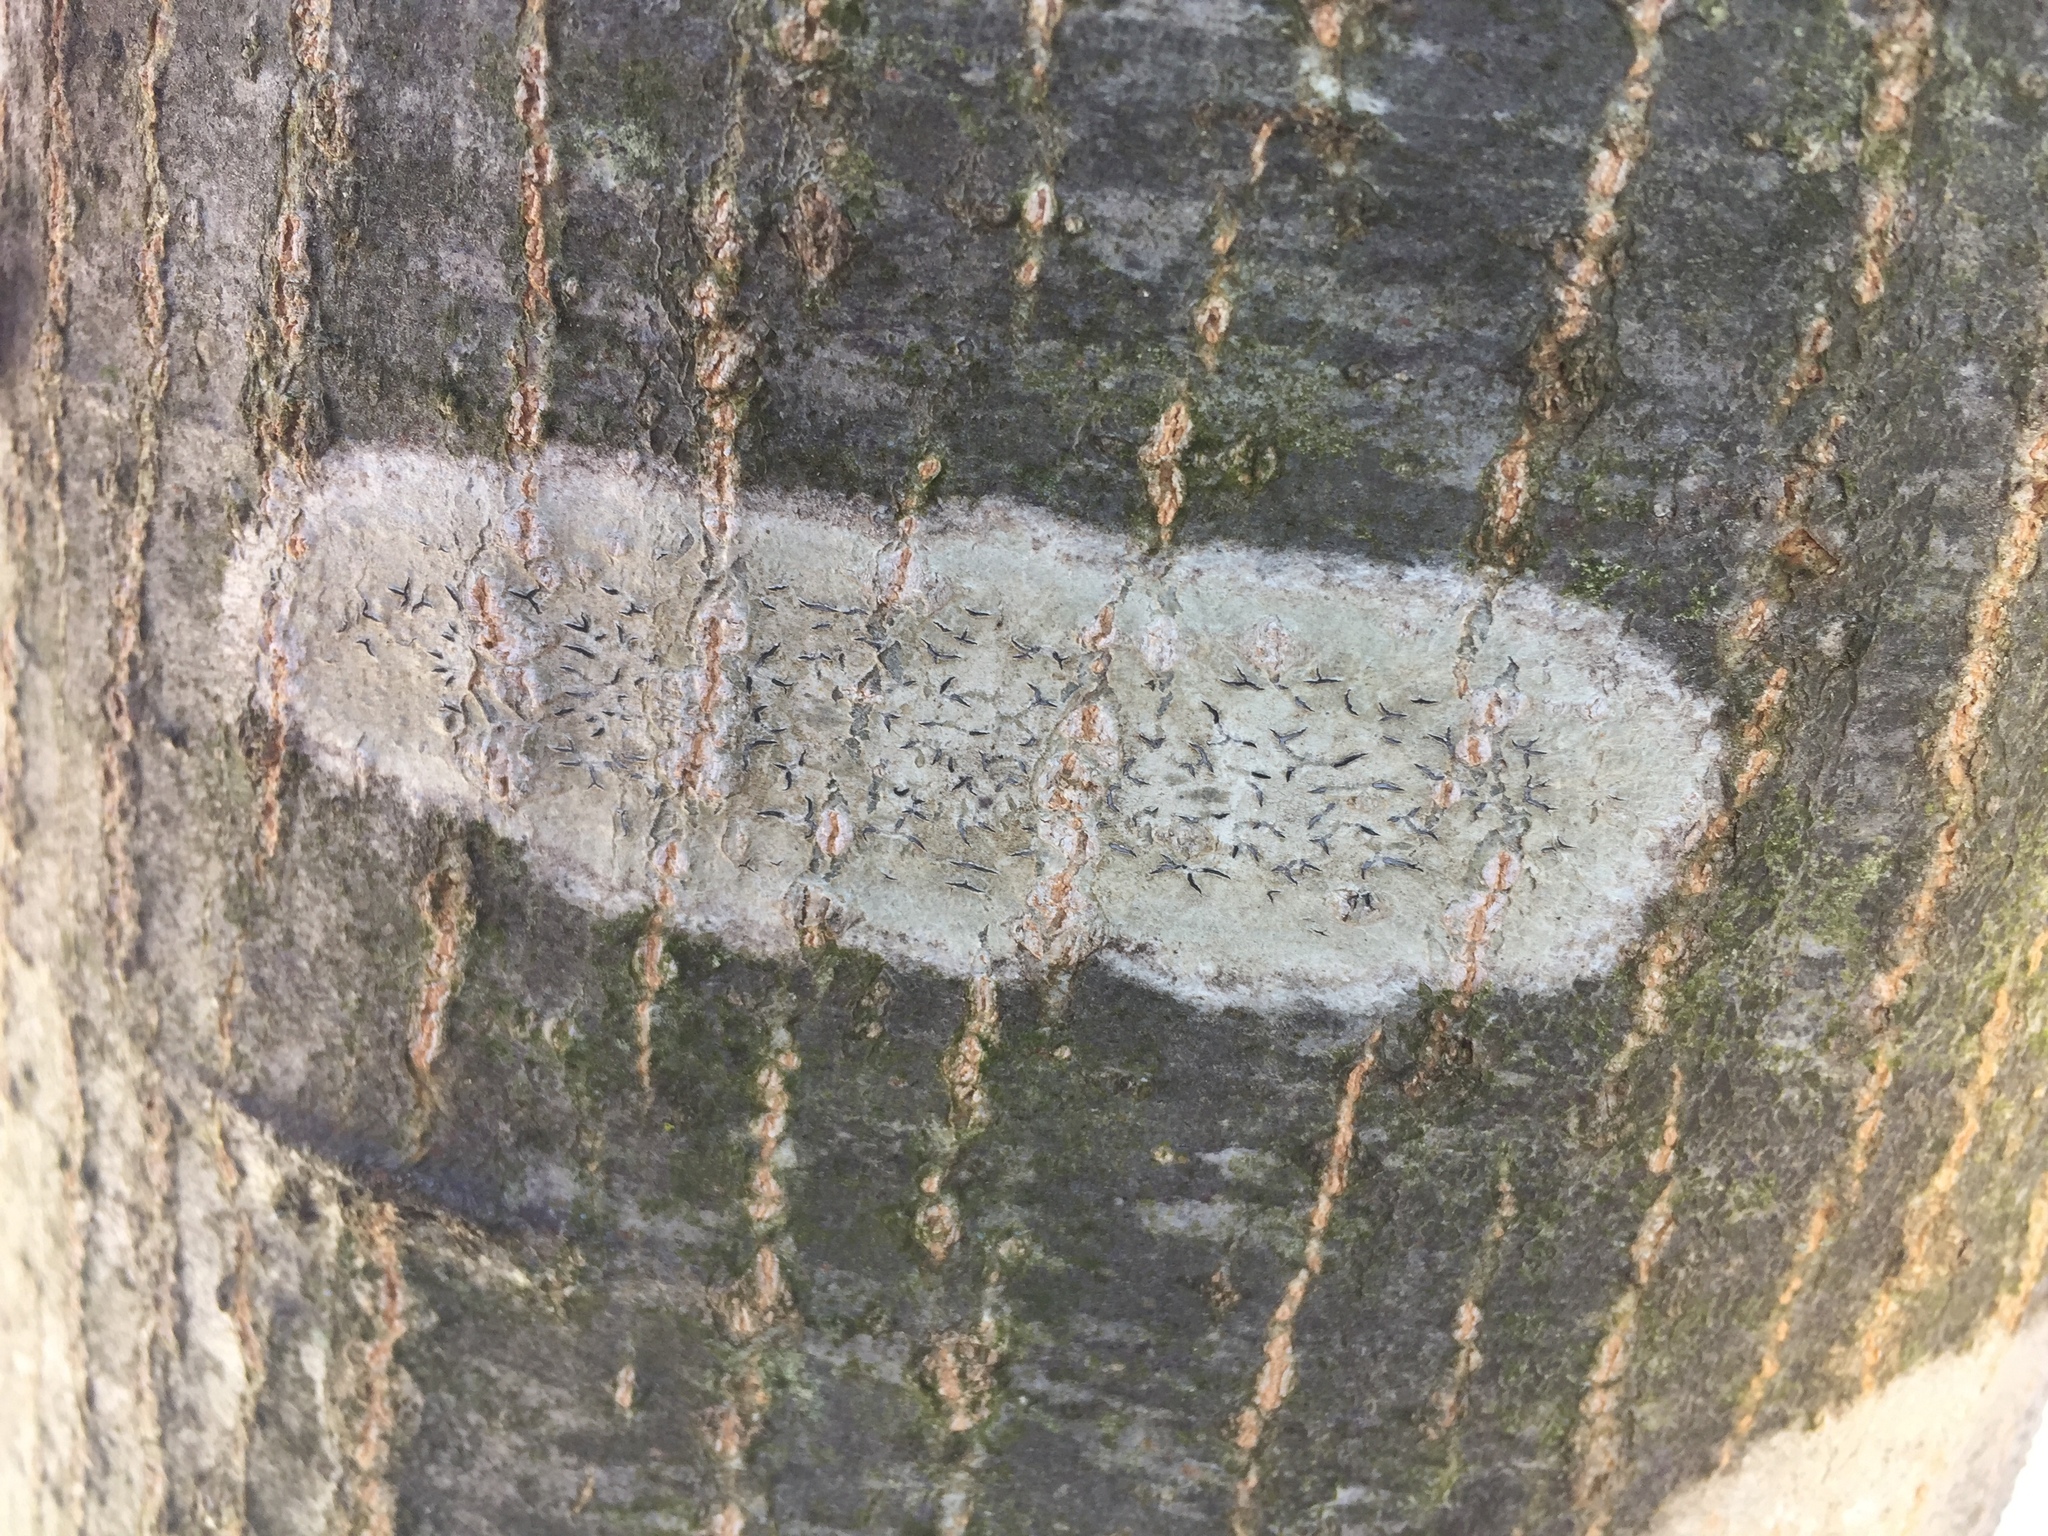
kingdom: Fungi
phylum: Ascomycota
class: Lecanoromycetes
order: Ostropales
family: Graphidaceae
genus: Graphis
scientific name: Graphis scripta
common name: Script lichen
